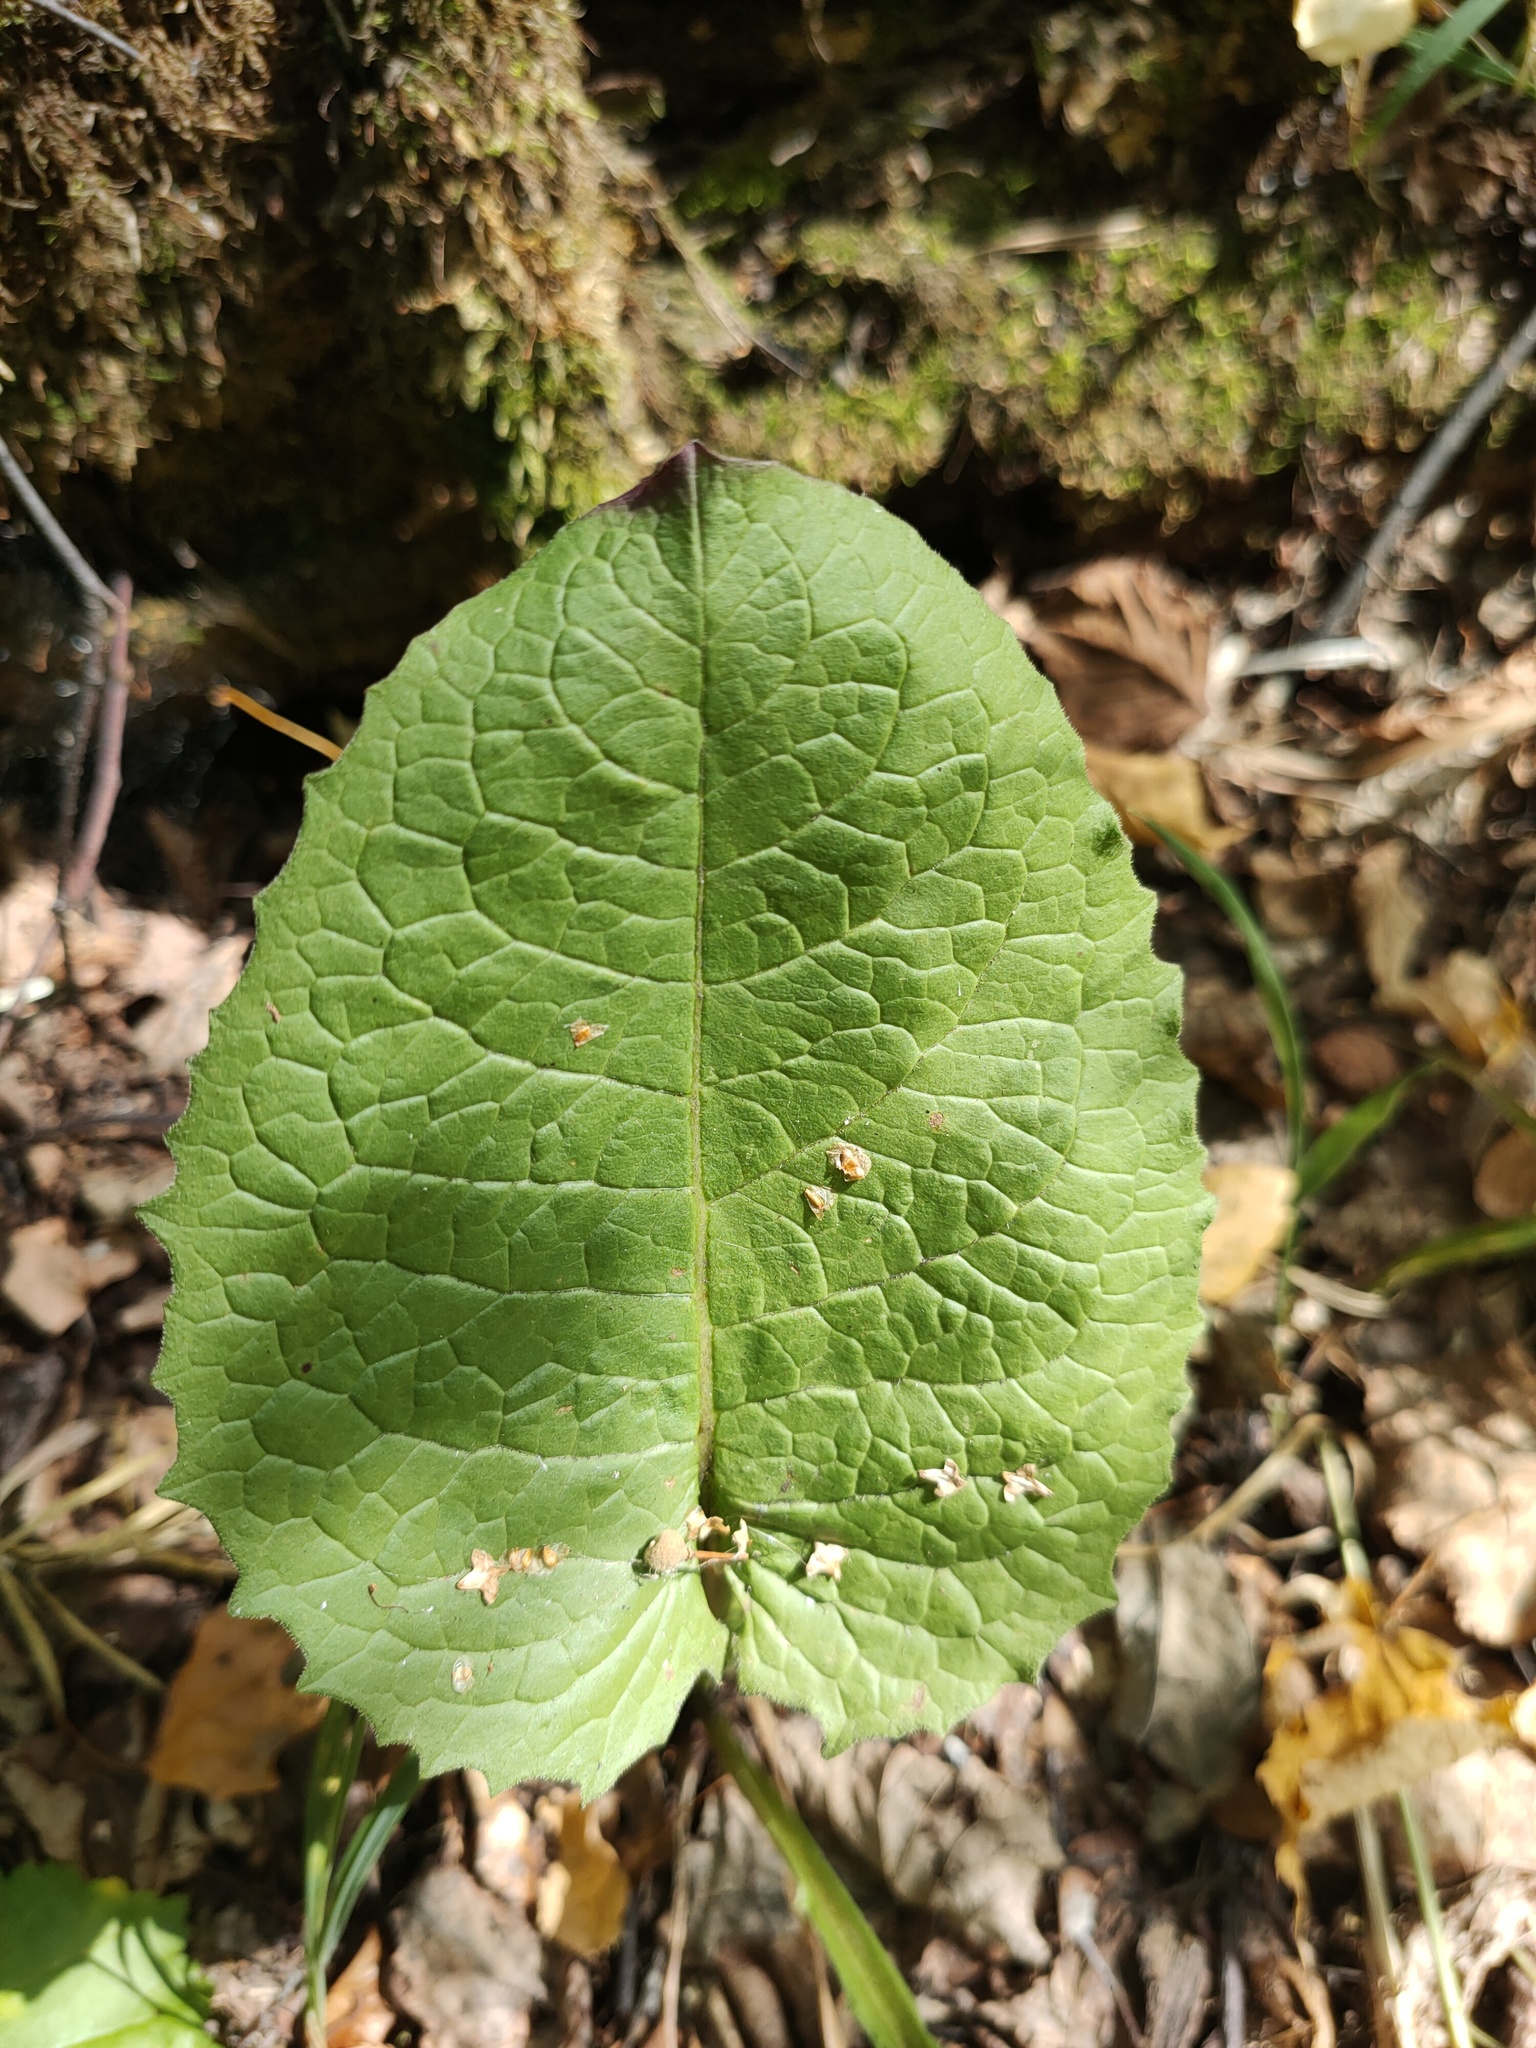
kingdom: Plantae
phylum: Tracheophyta
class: Magnoliopsida
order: Asterales
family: Asteraceae
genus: Crepis
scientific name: Crepis sibirica
